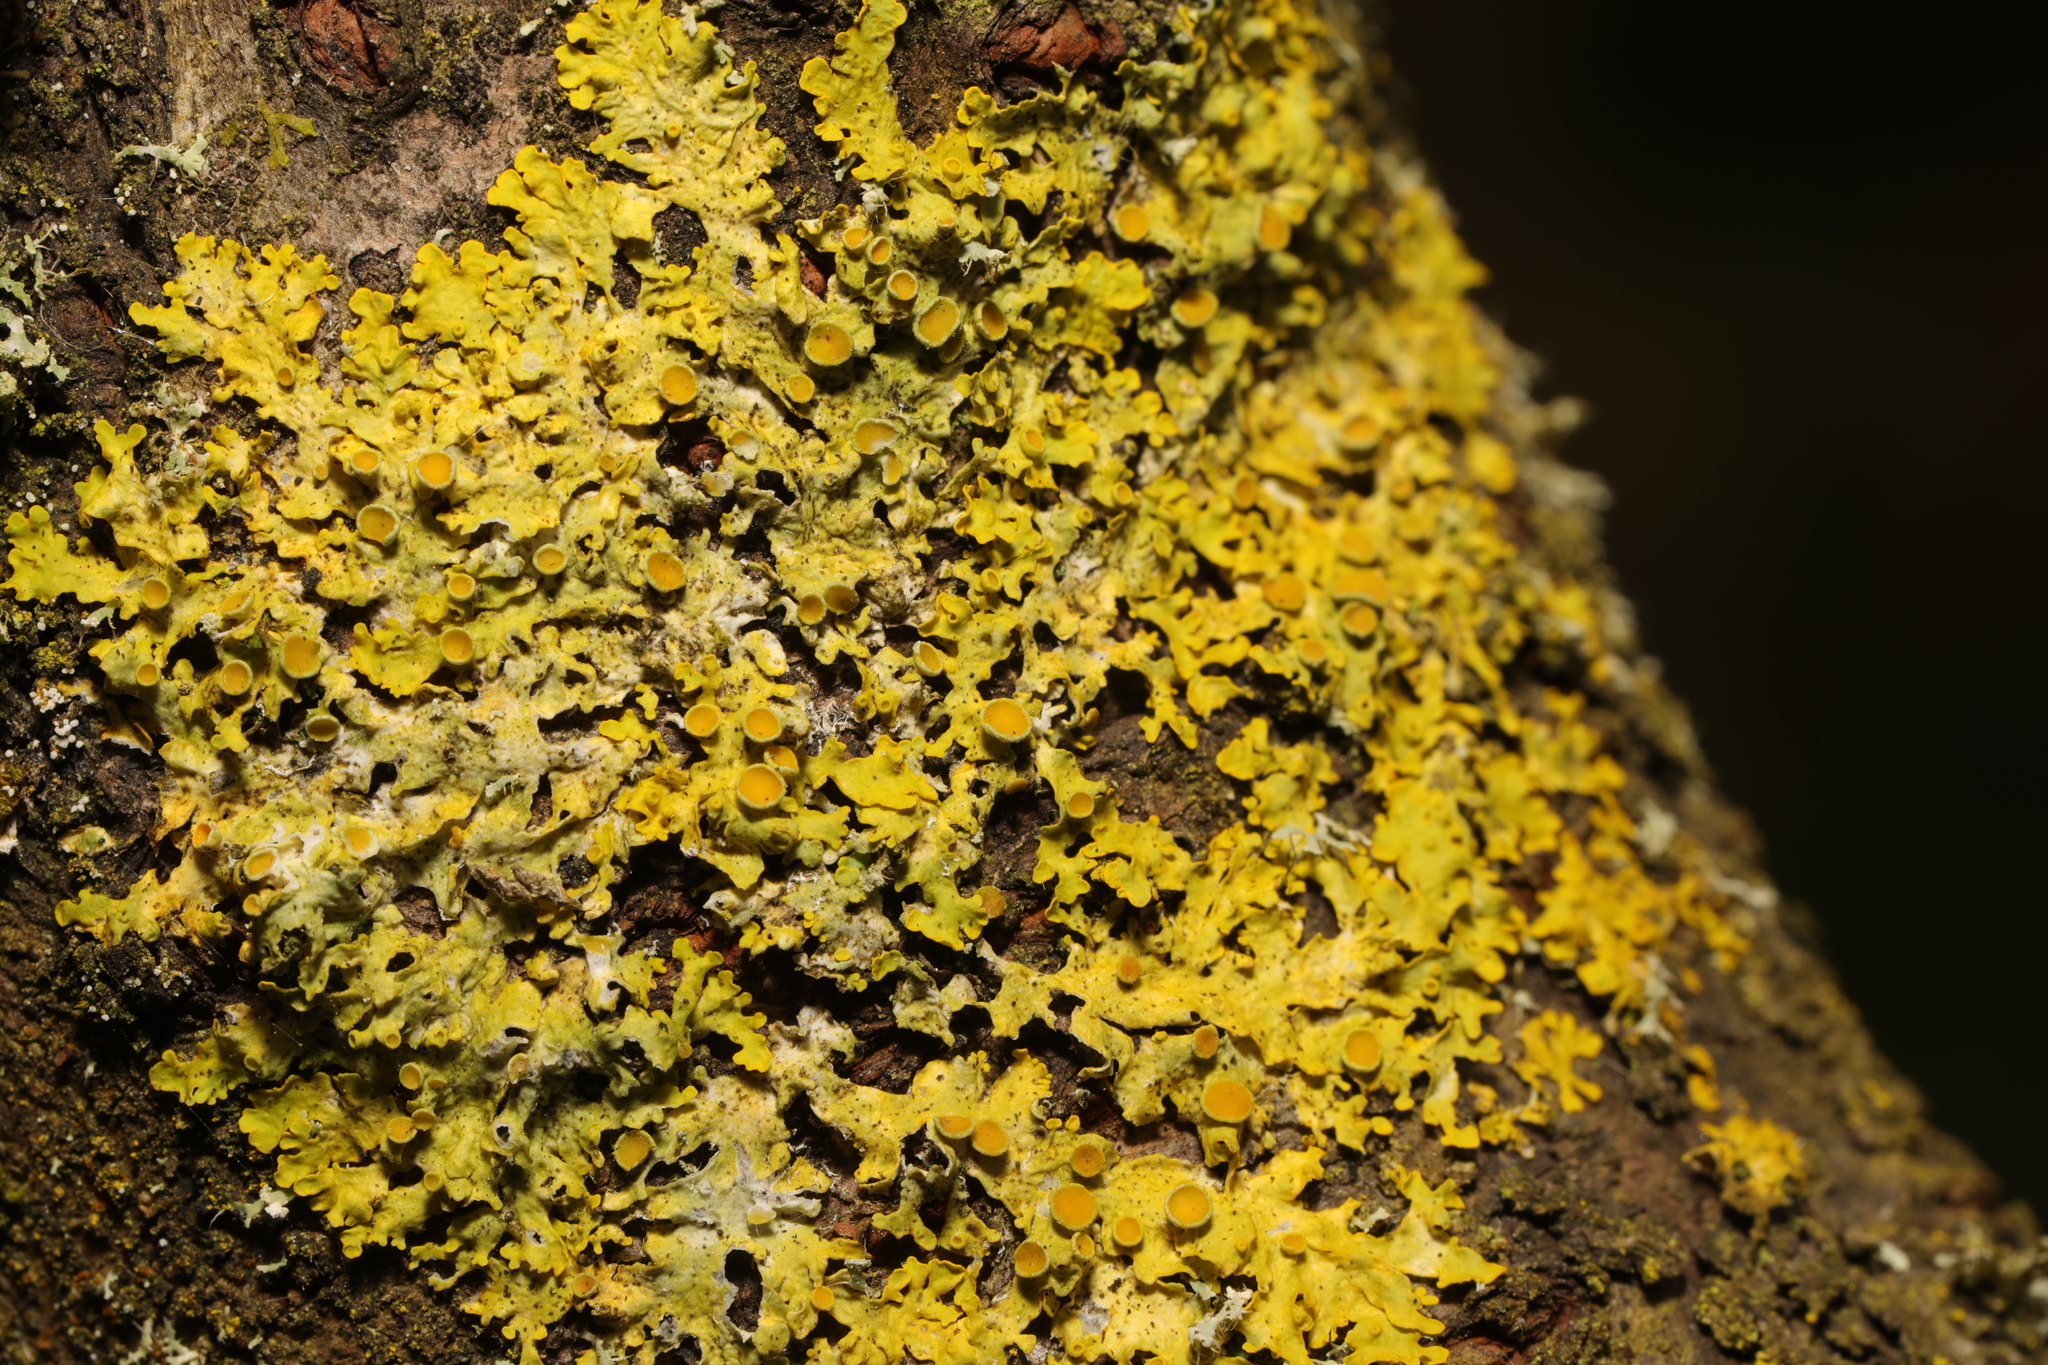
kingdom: Fungi
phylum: Ascomycota
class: Lecanoromycetes
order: Teloschistales
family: Teloschistaceae
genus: Xanthoria
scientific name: Xanthoria parietina
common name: Common orange lichen
